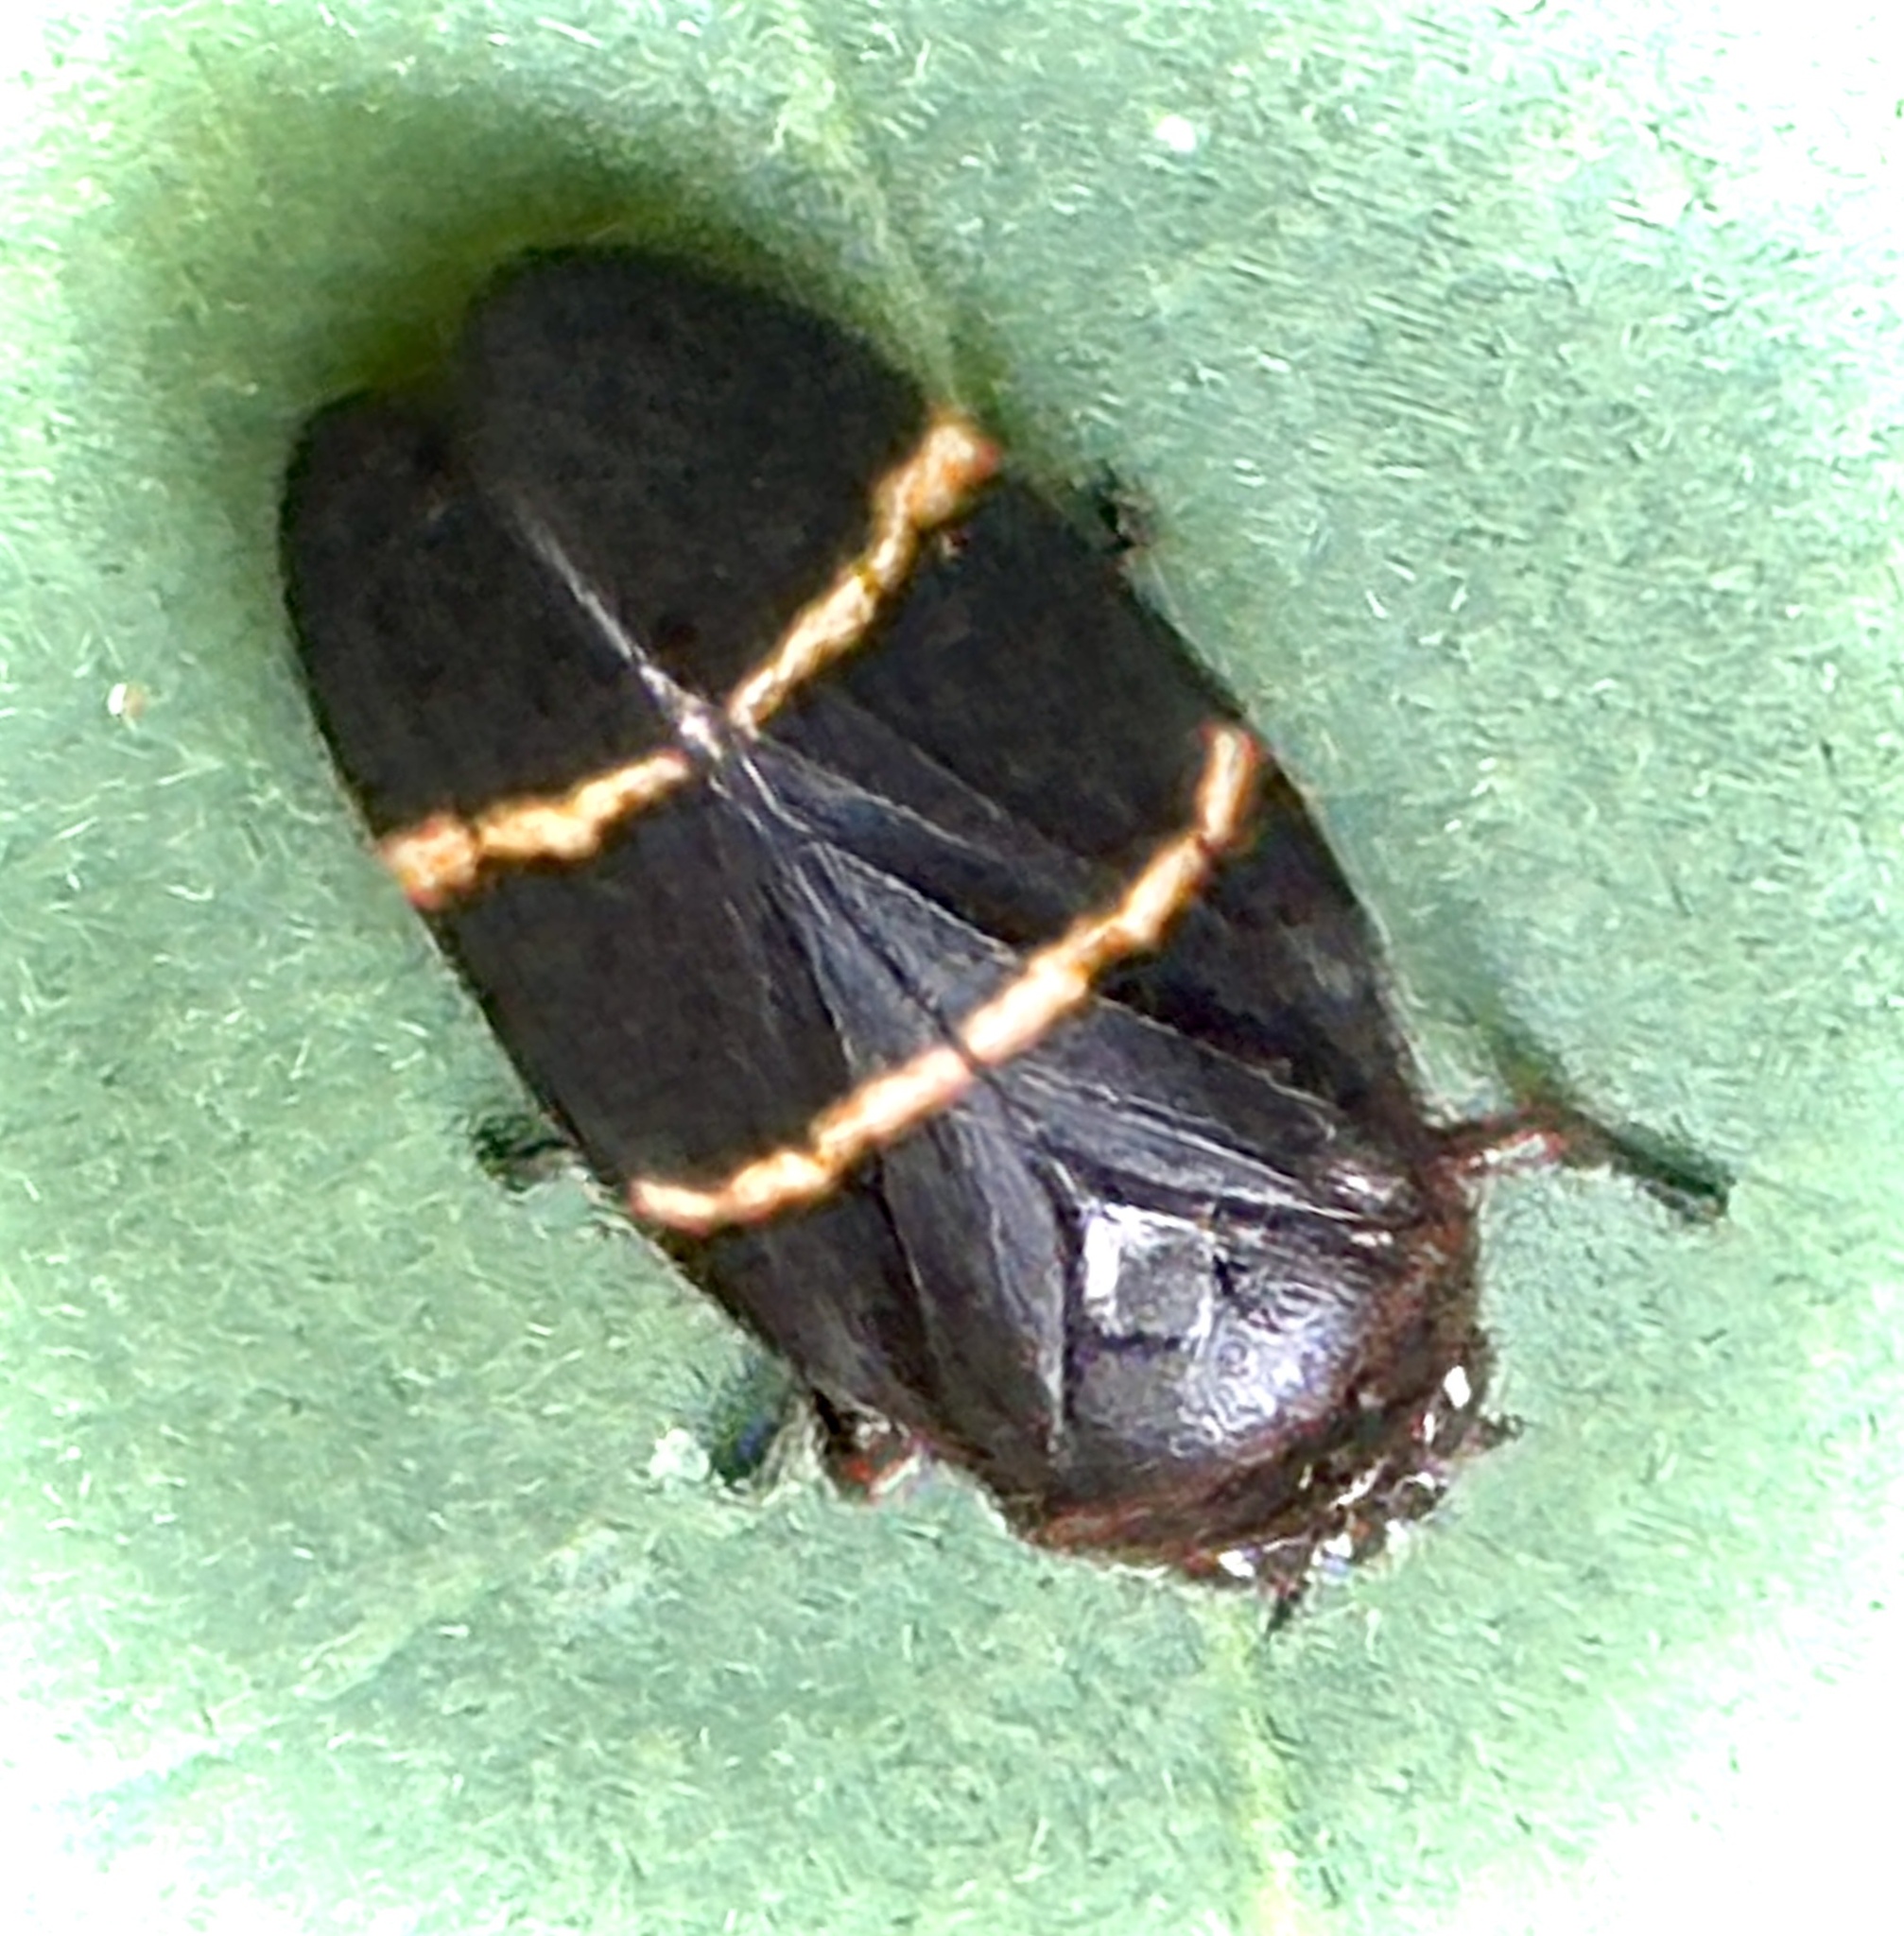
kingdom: Animalia
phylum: Arthropoda
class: Insecta
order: Hemiptera
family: Cercopidae
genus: Prosapia
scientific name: Prosapia bicincta
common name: Twolined spittlebug
